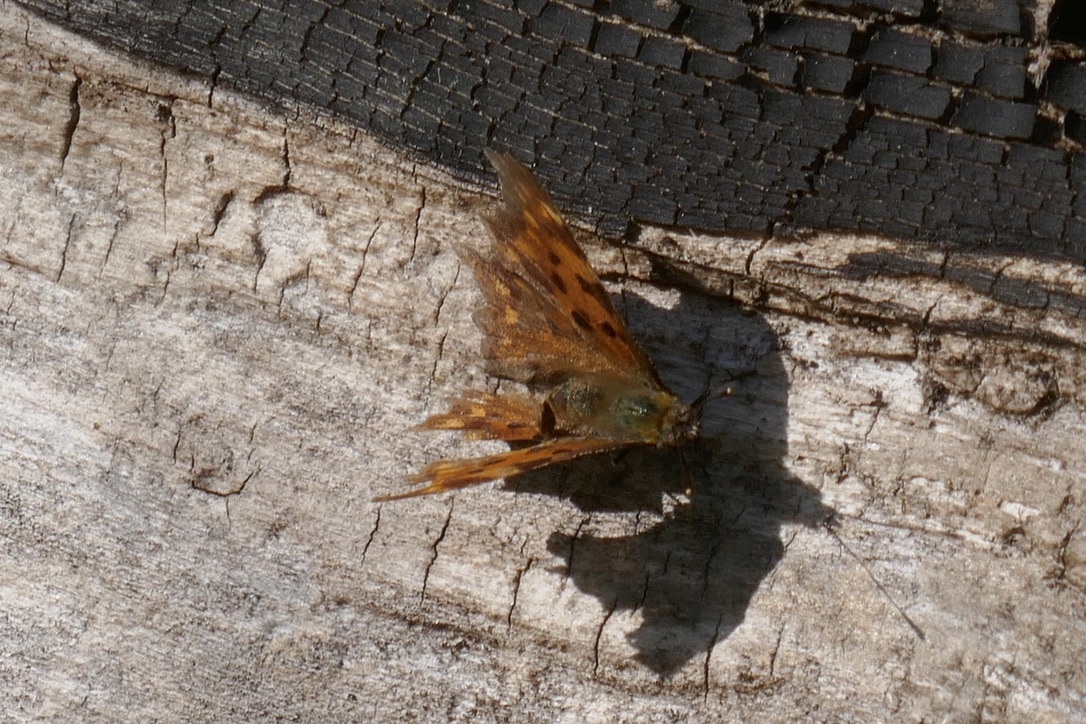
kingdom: Animalia
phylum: Arthropoda
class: Insecta
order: Lepidoptera
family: Nymphalidae
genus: Polygonia
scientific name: Polygonia c-album
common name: Comma
